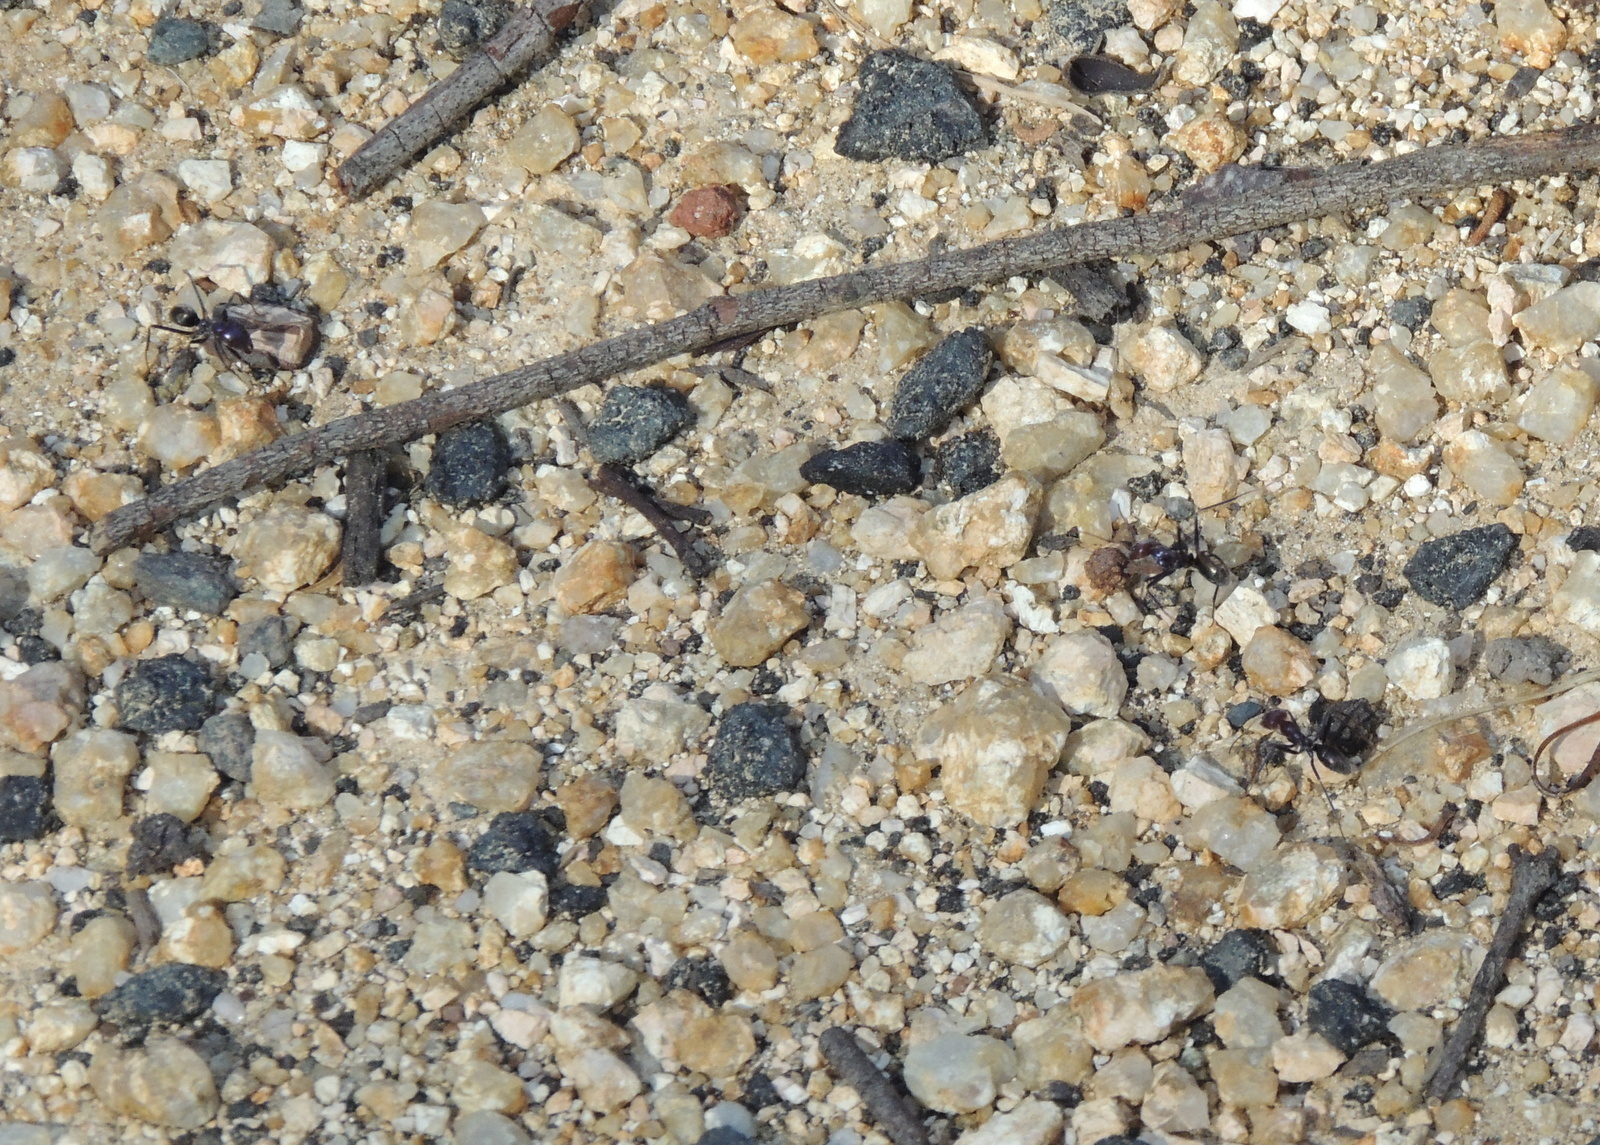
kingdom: Animalia
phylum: Arthropoda
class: Insecta
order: Hymenoptera
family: Formicidae
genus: Iridomyrmex
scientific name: Iridomyrmex purpureus
